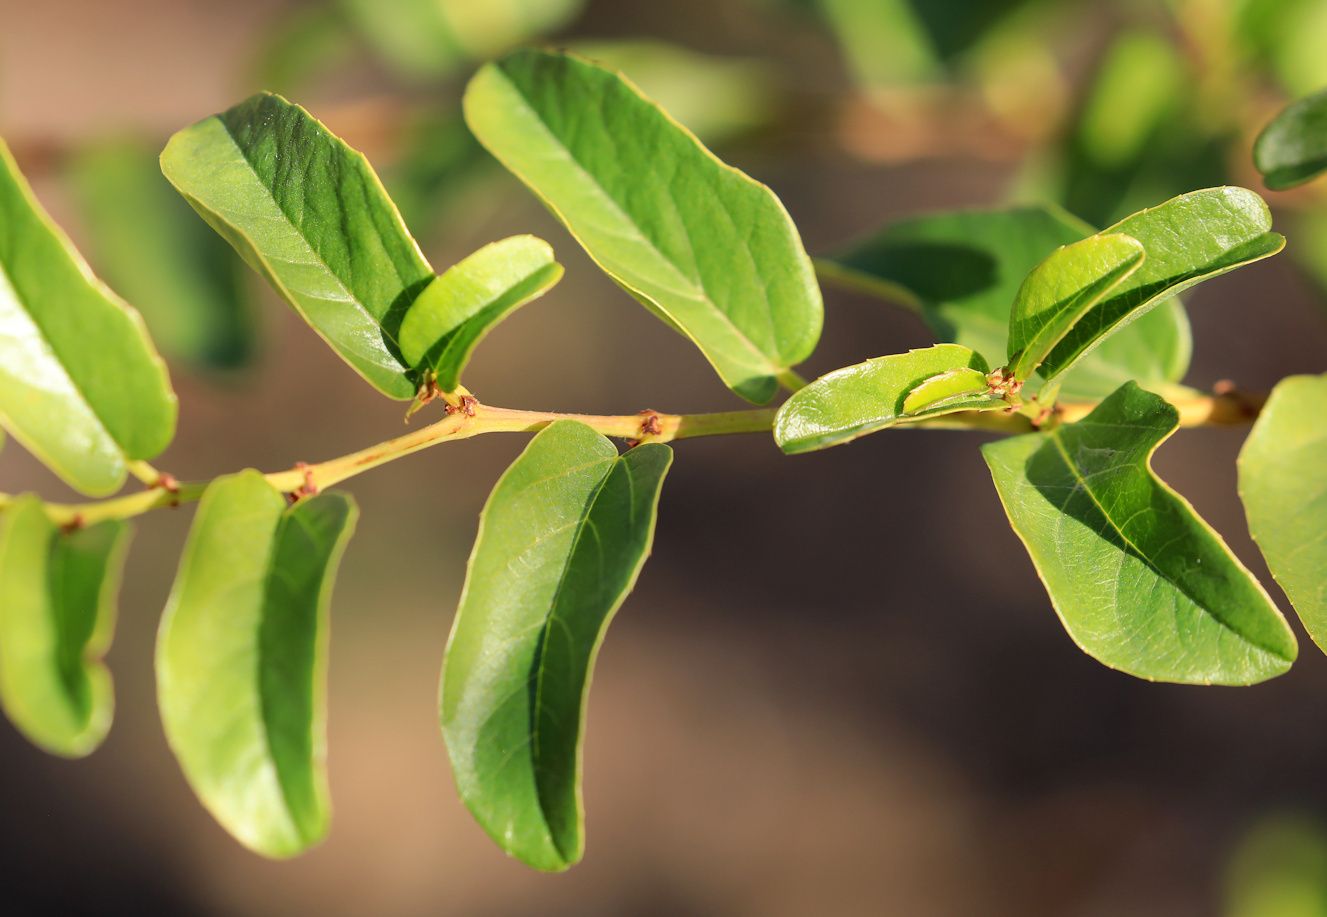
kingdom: Plantae
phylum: Tracheophyta
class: Magnoliopsida
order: Vitales
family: Vitaceae
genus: Cissus
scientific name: Cissus cornifolia
